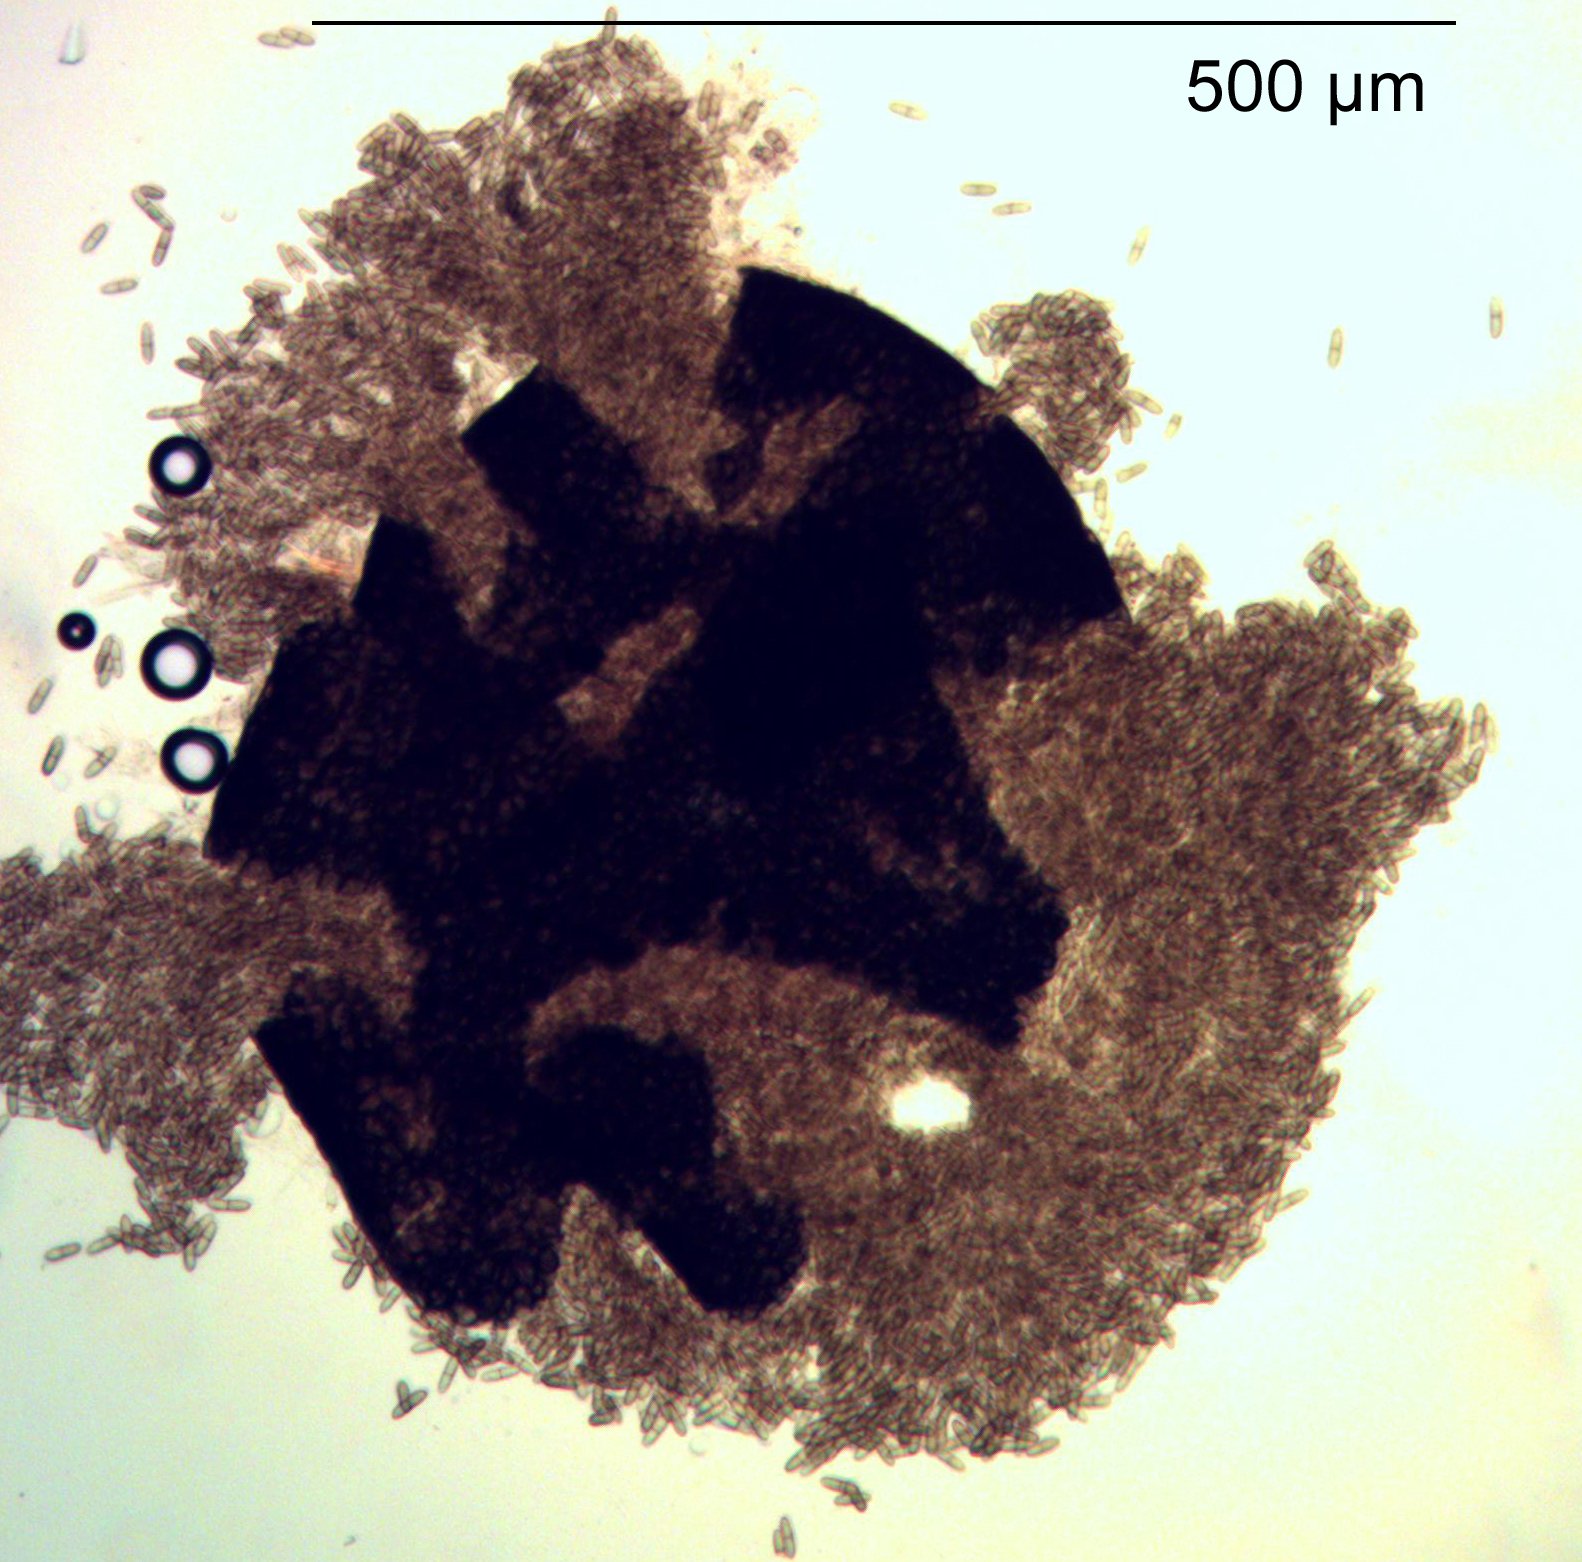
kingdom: Fungi
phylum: Ascomycota
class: Dothideomycetes
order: Pleosporales
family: Didymellaceae
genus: Ascochyta
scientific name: Ascochyta hordei
